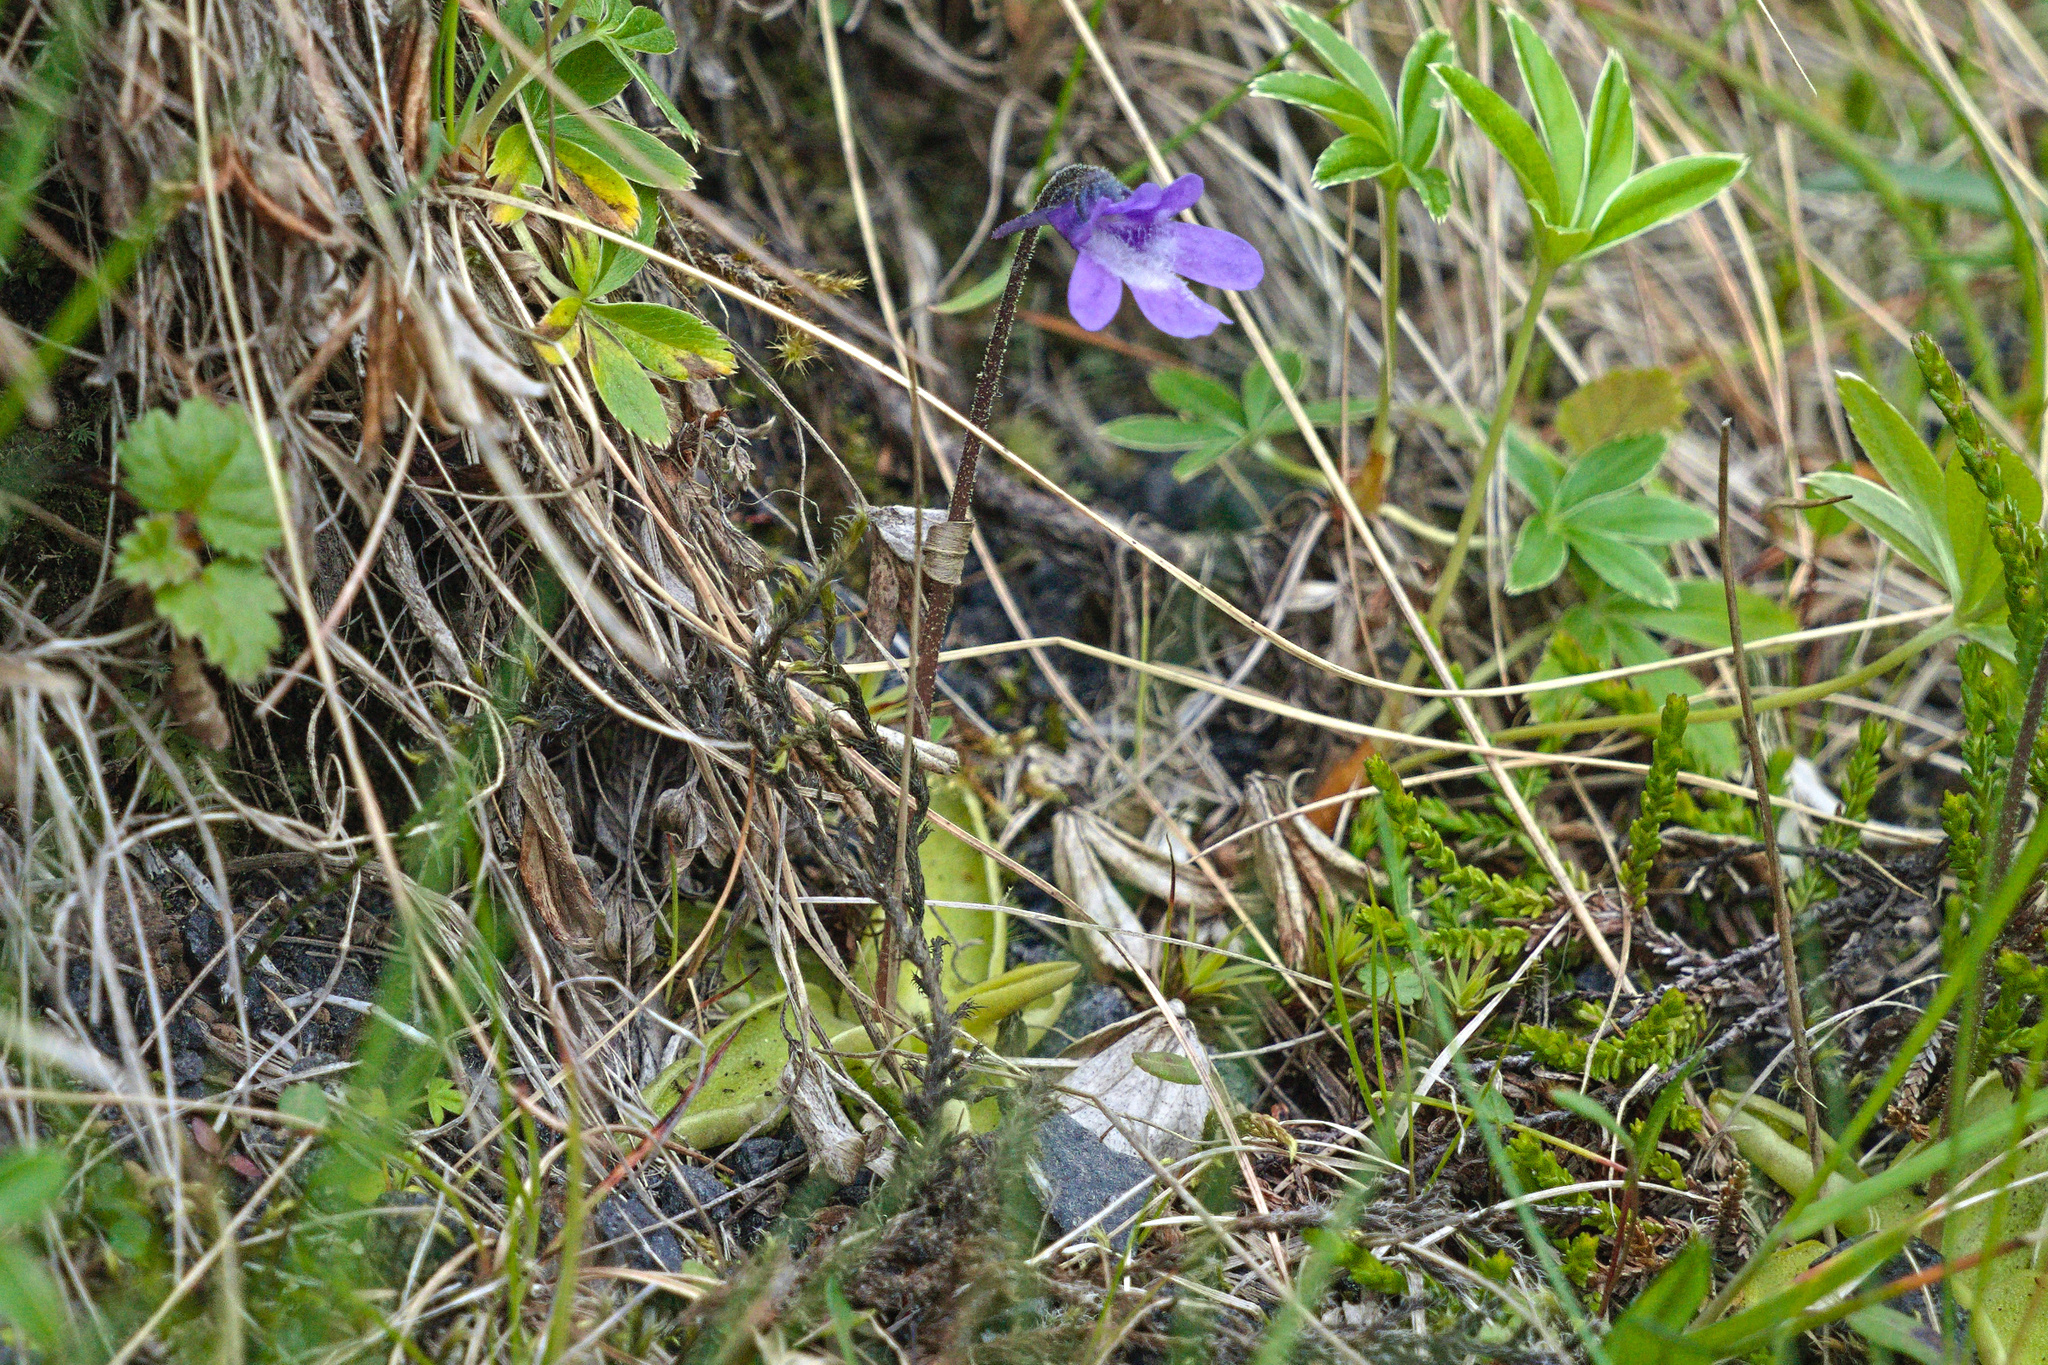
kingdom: Plantae
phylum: Tracheophyta
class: Magnoliopsida
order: Lamiales
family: Lentibulariaceae
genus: Pinguicula
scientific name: Pinguicula vulgaris
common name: Common butterwort
